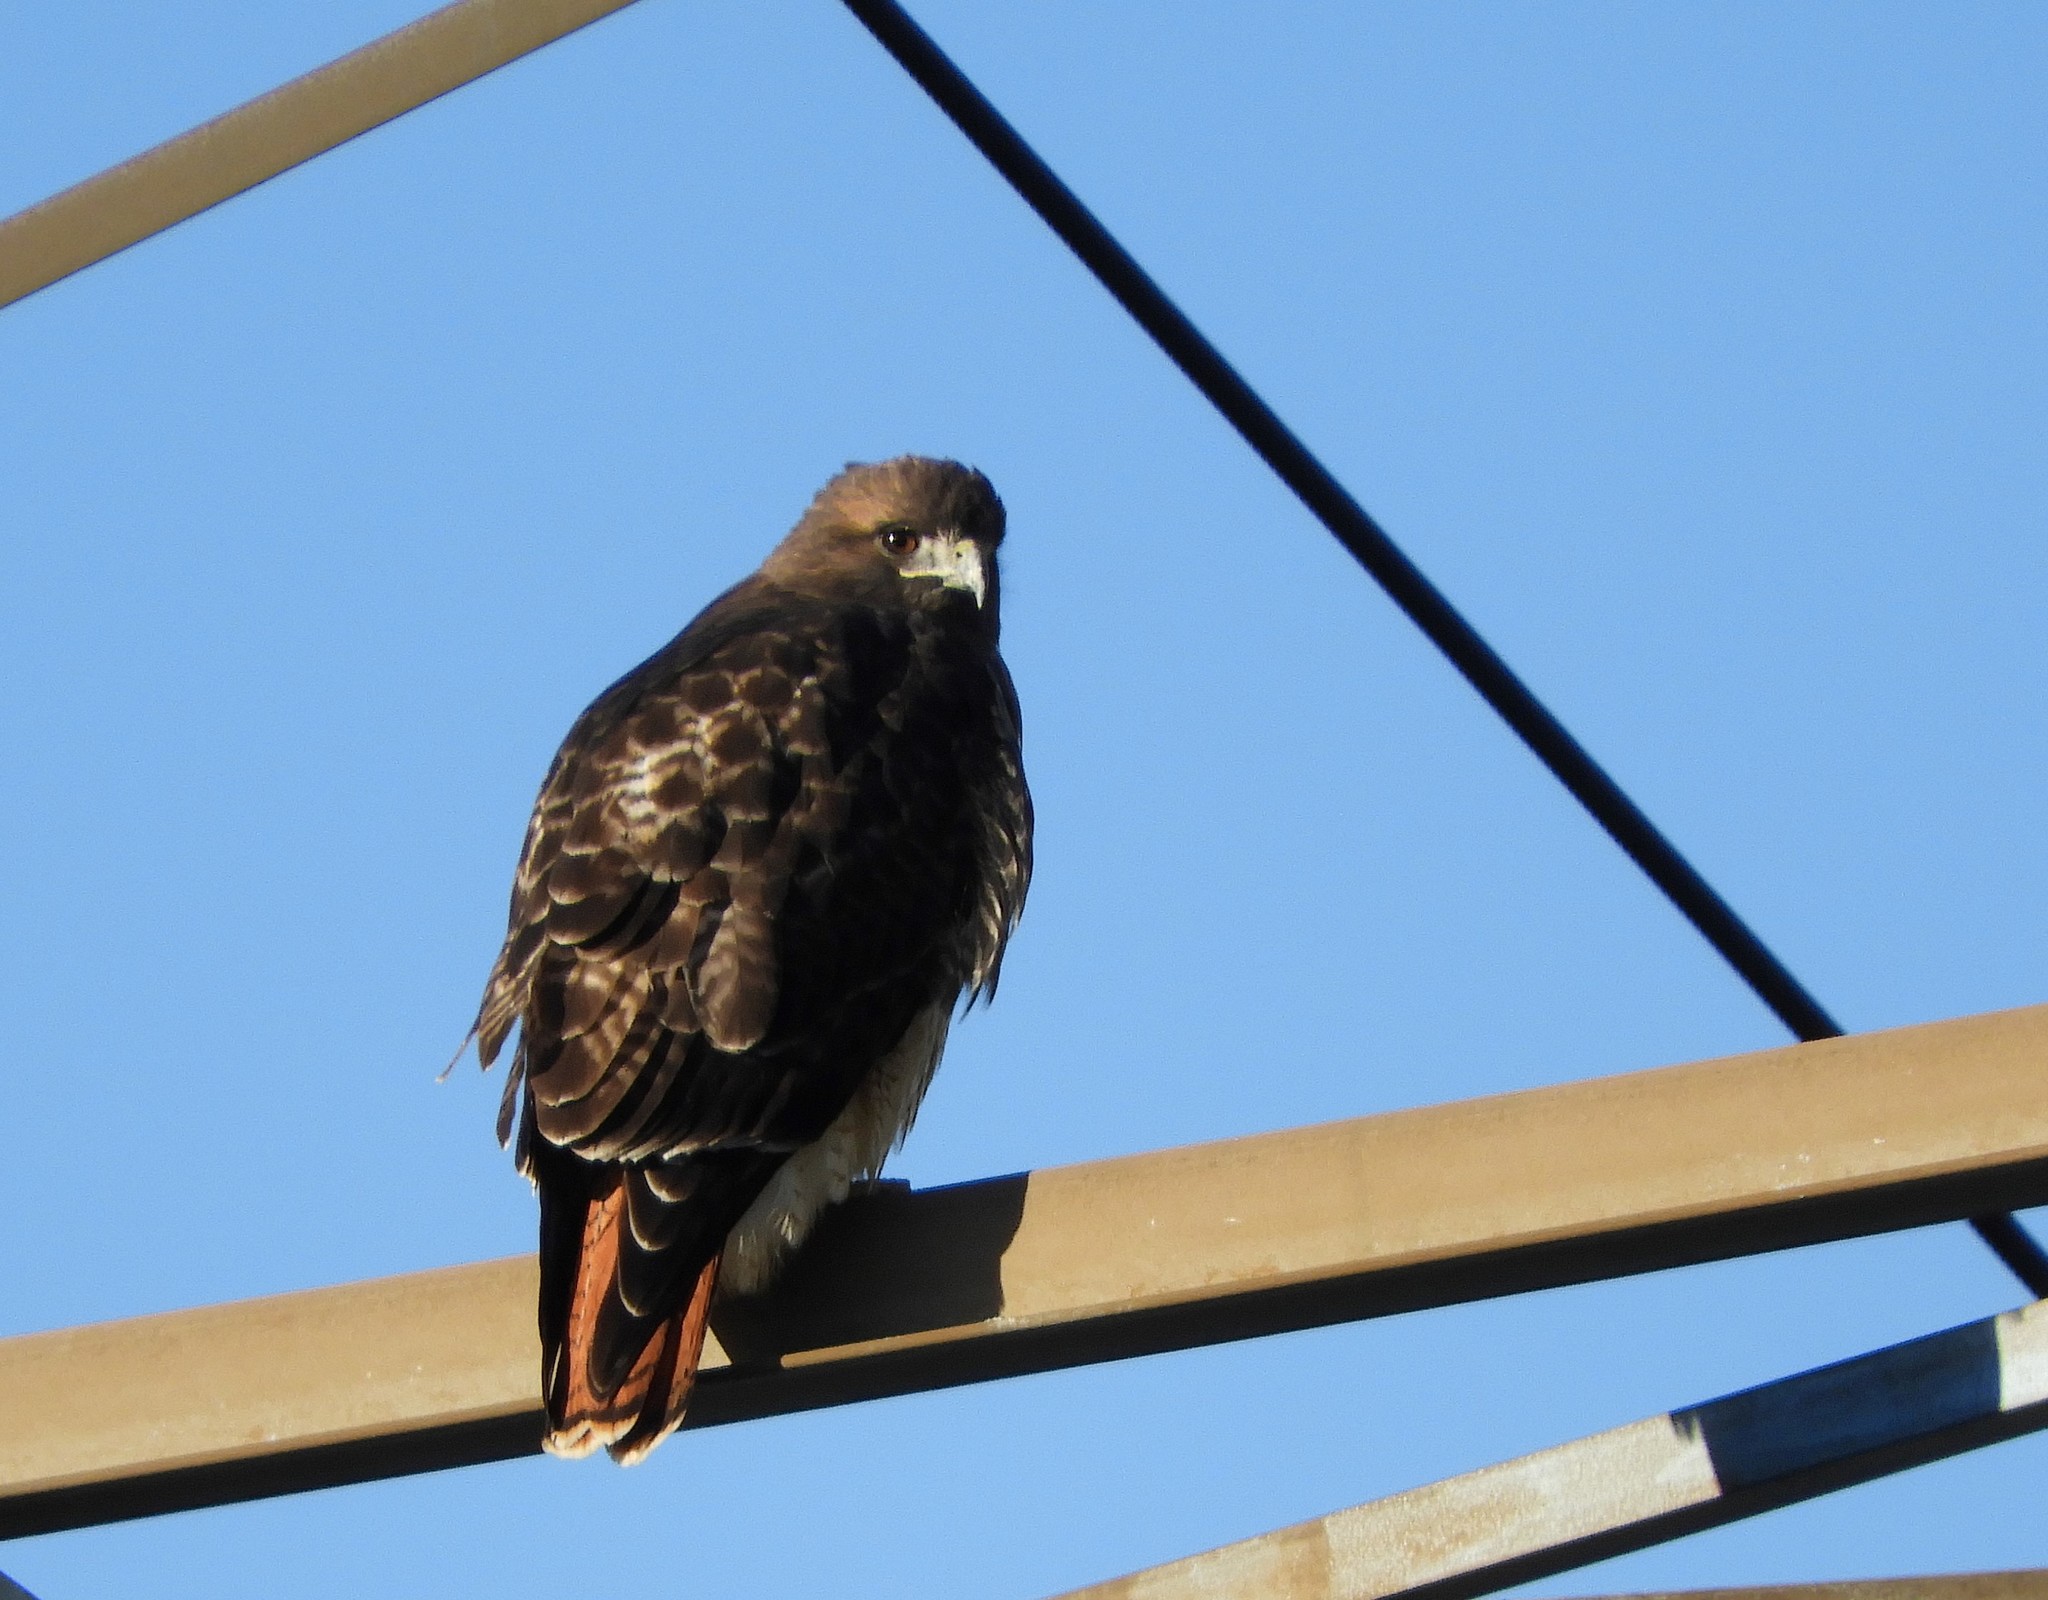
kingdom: Animalia
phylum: Chordata
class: Aves
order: Accipitriformes
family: Accipitridae
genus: Buteo
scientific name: Buteo jamaicensis
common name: Red-tailed hawk
